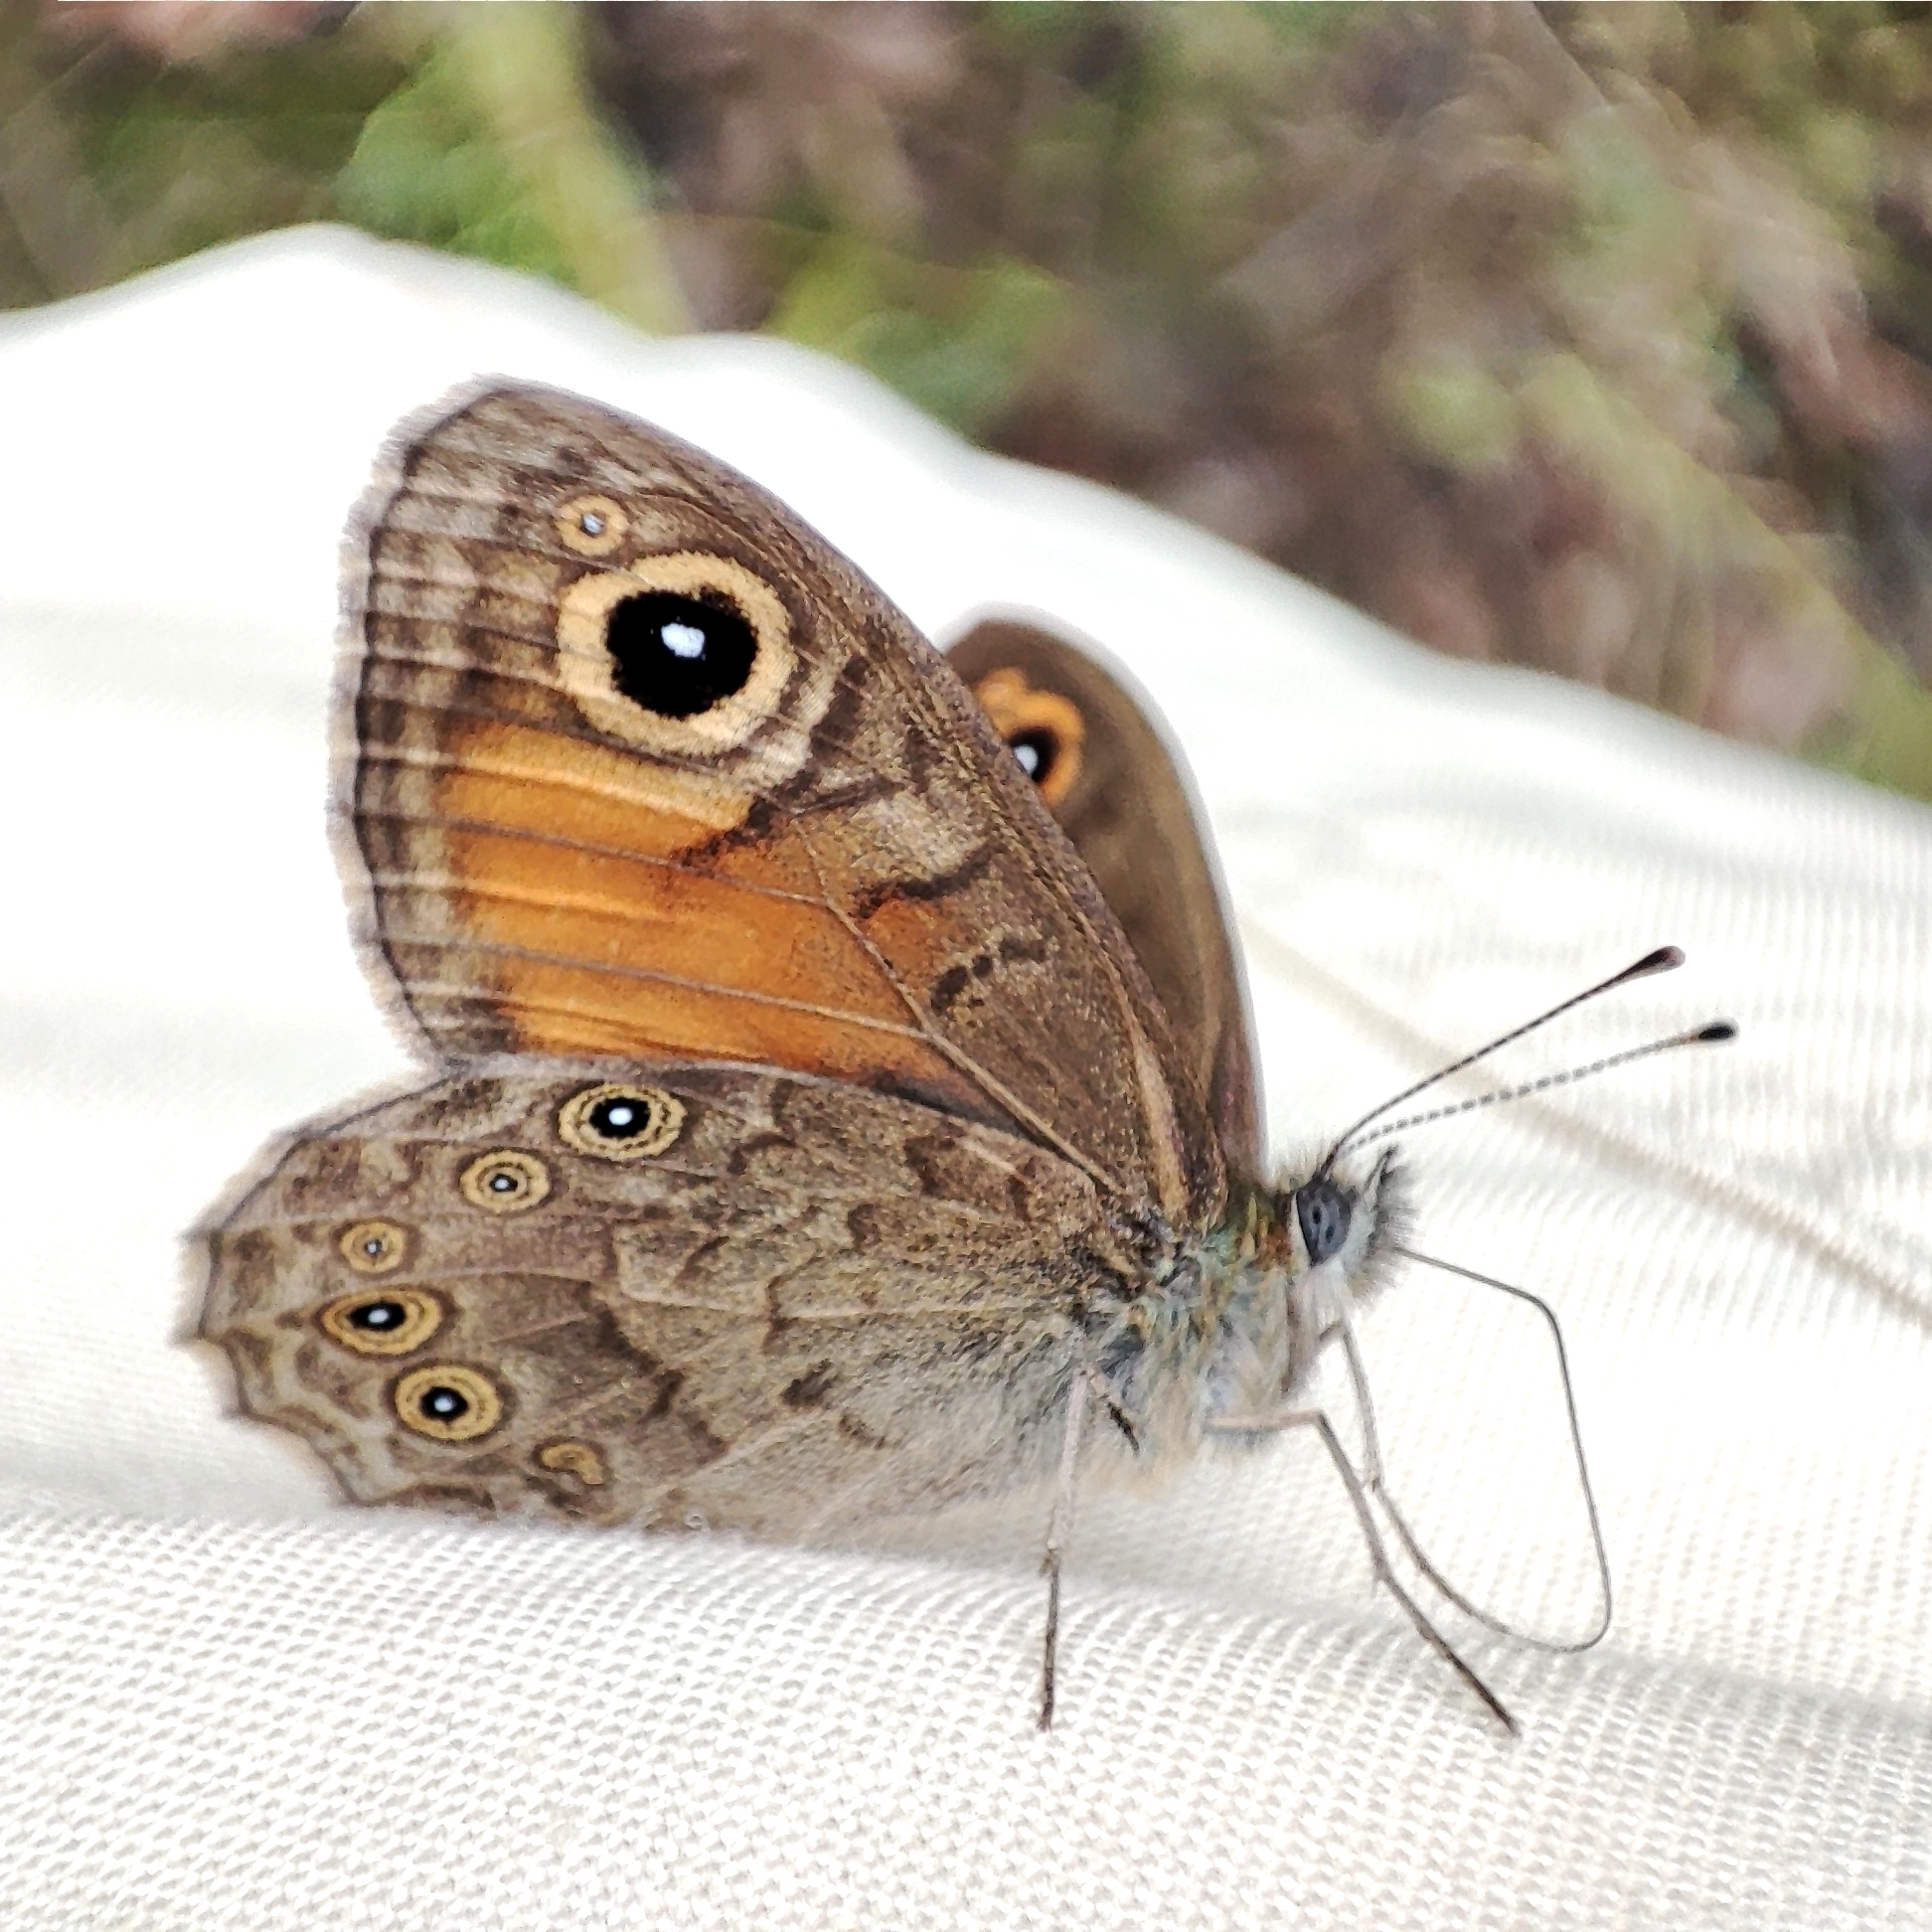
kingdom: Animalia
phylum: Arthropoda
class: Insecta
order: Lepidoptera
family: Nymphalidae
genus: Pararge
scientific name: Pararge Lasiommata maera
